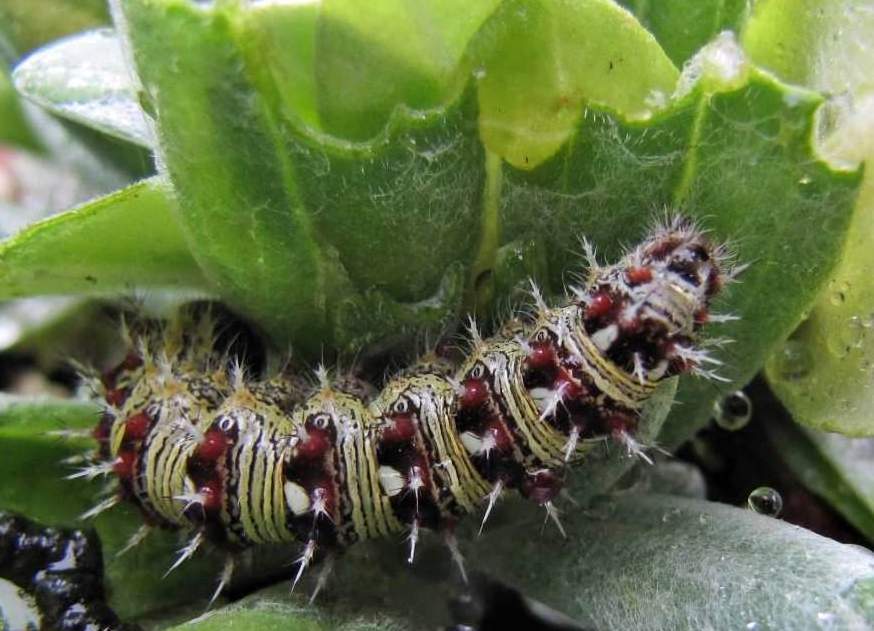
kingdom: Animalia
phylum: Arthropoda
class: Insecta
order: Lepidoptera
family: Nymphalidae
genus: Vanessa
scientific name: Vanessa virginiensis
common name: American lady
